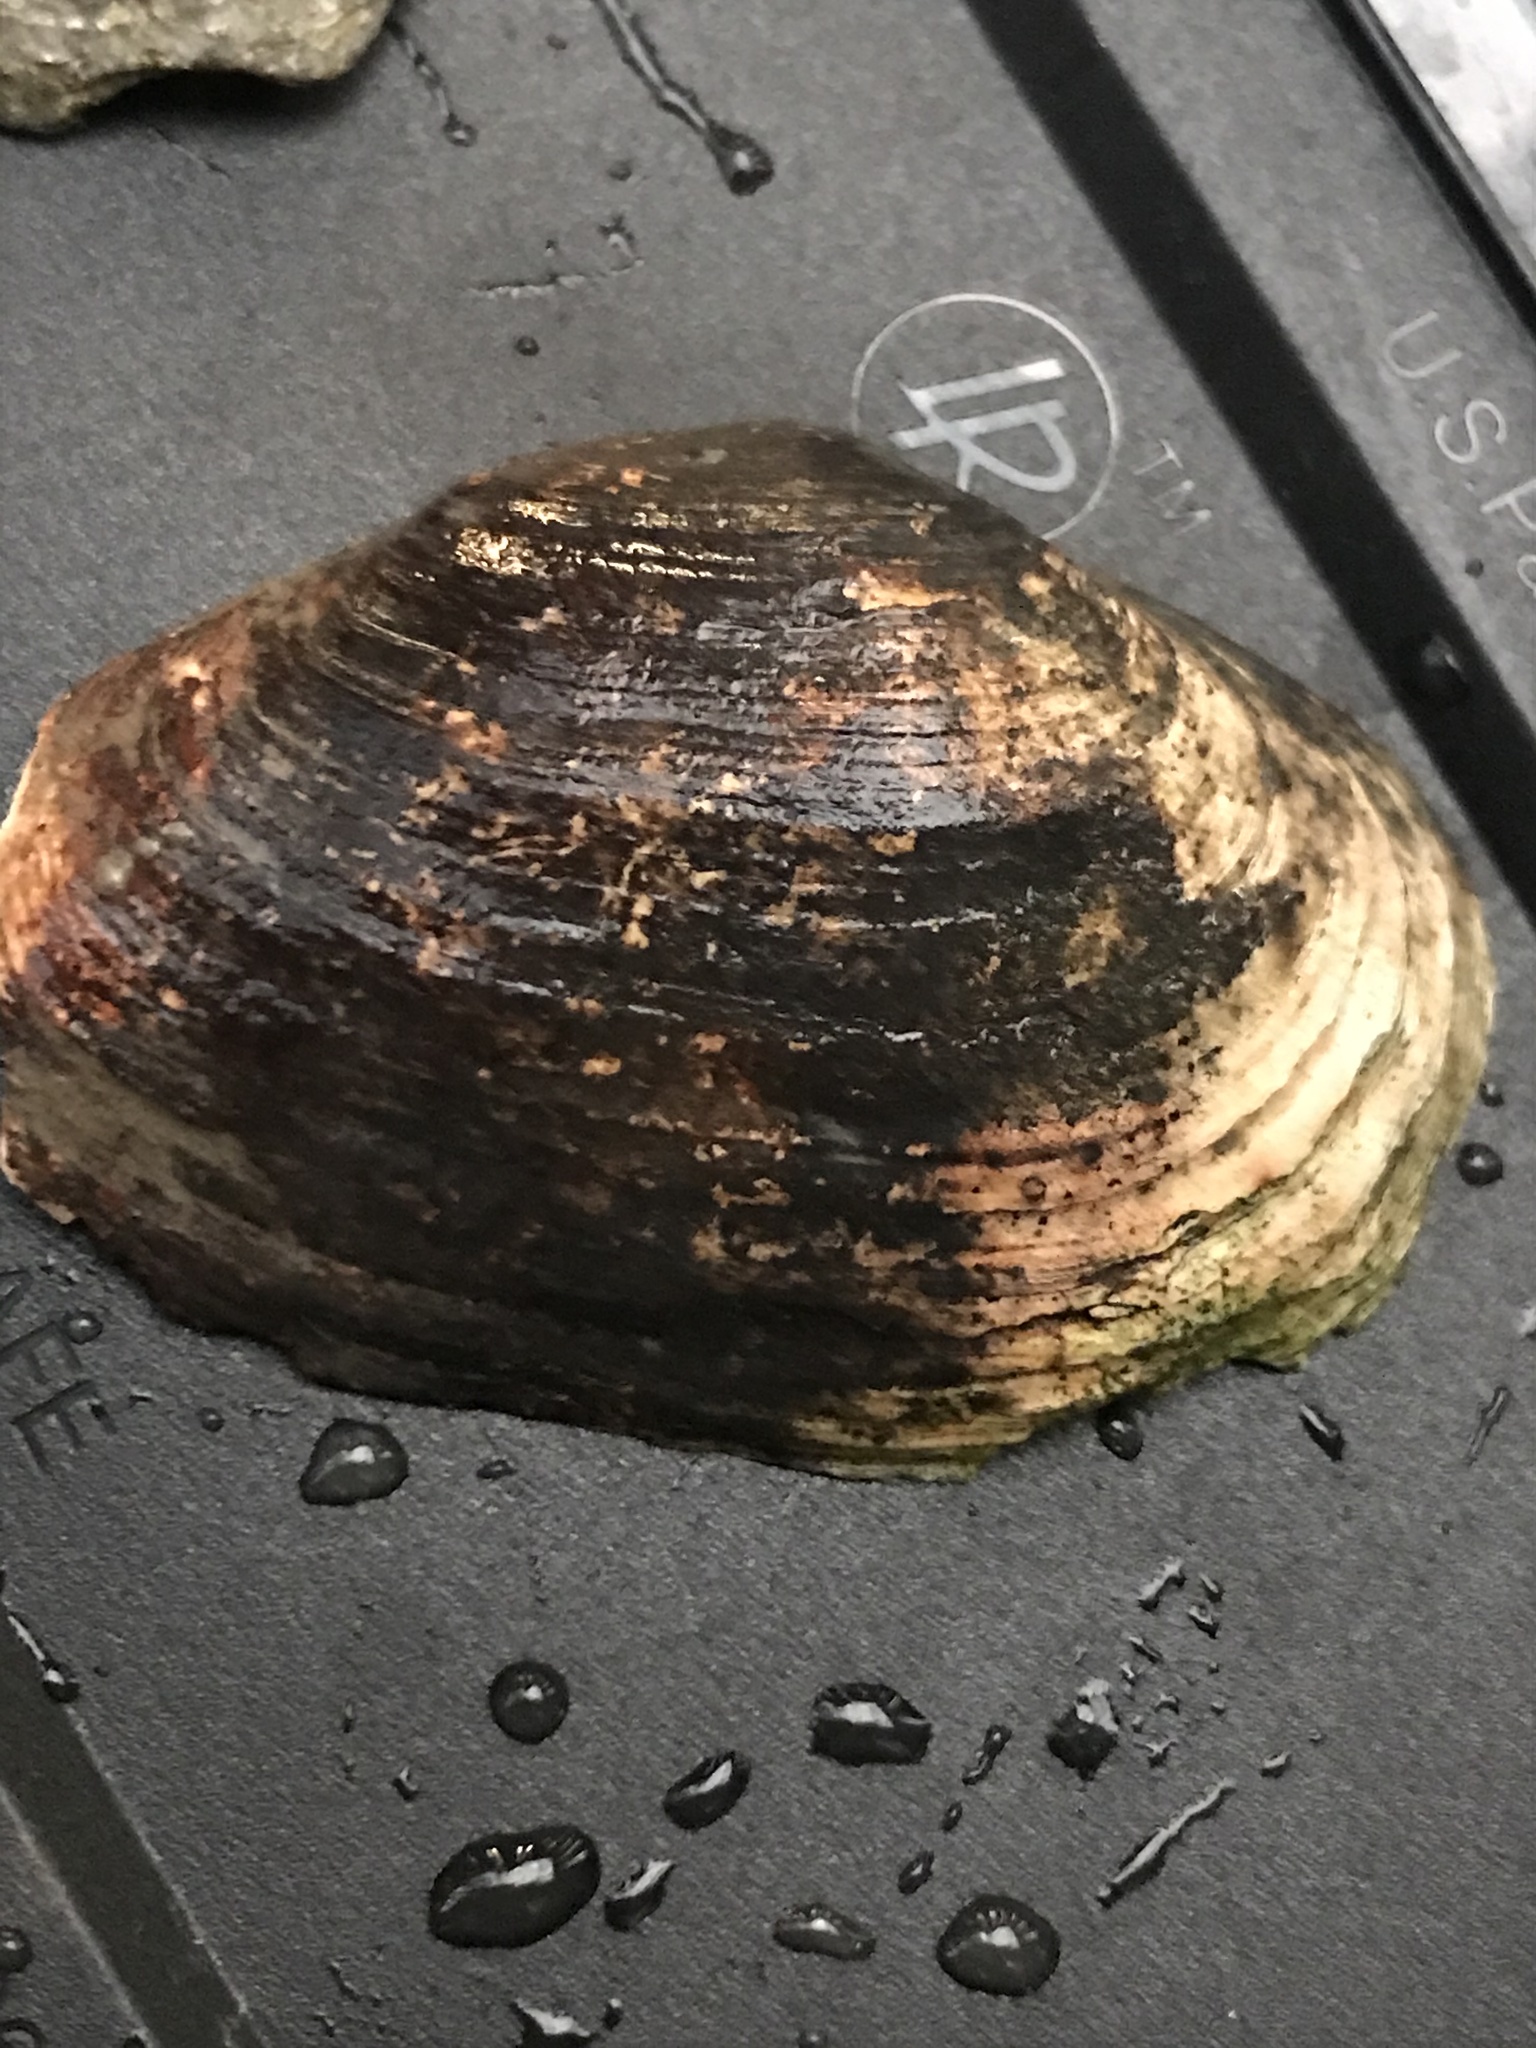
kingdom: Animalia
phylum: Mollusca
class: Bivalvia
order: Myida
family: Myidae
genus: Mya
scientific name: Mya arenaria
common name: Soft-shelled clam
